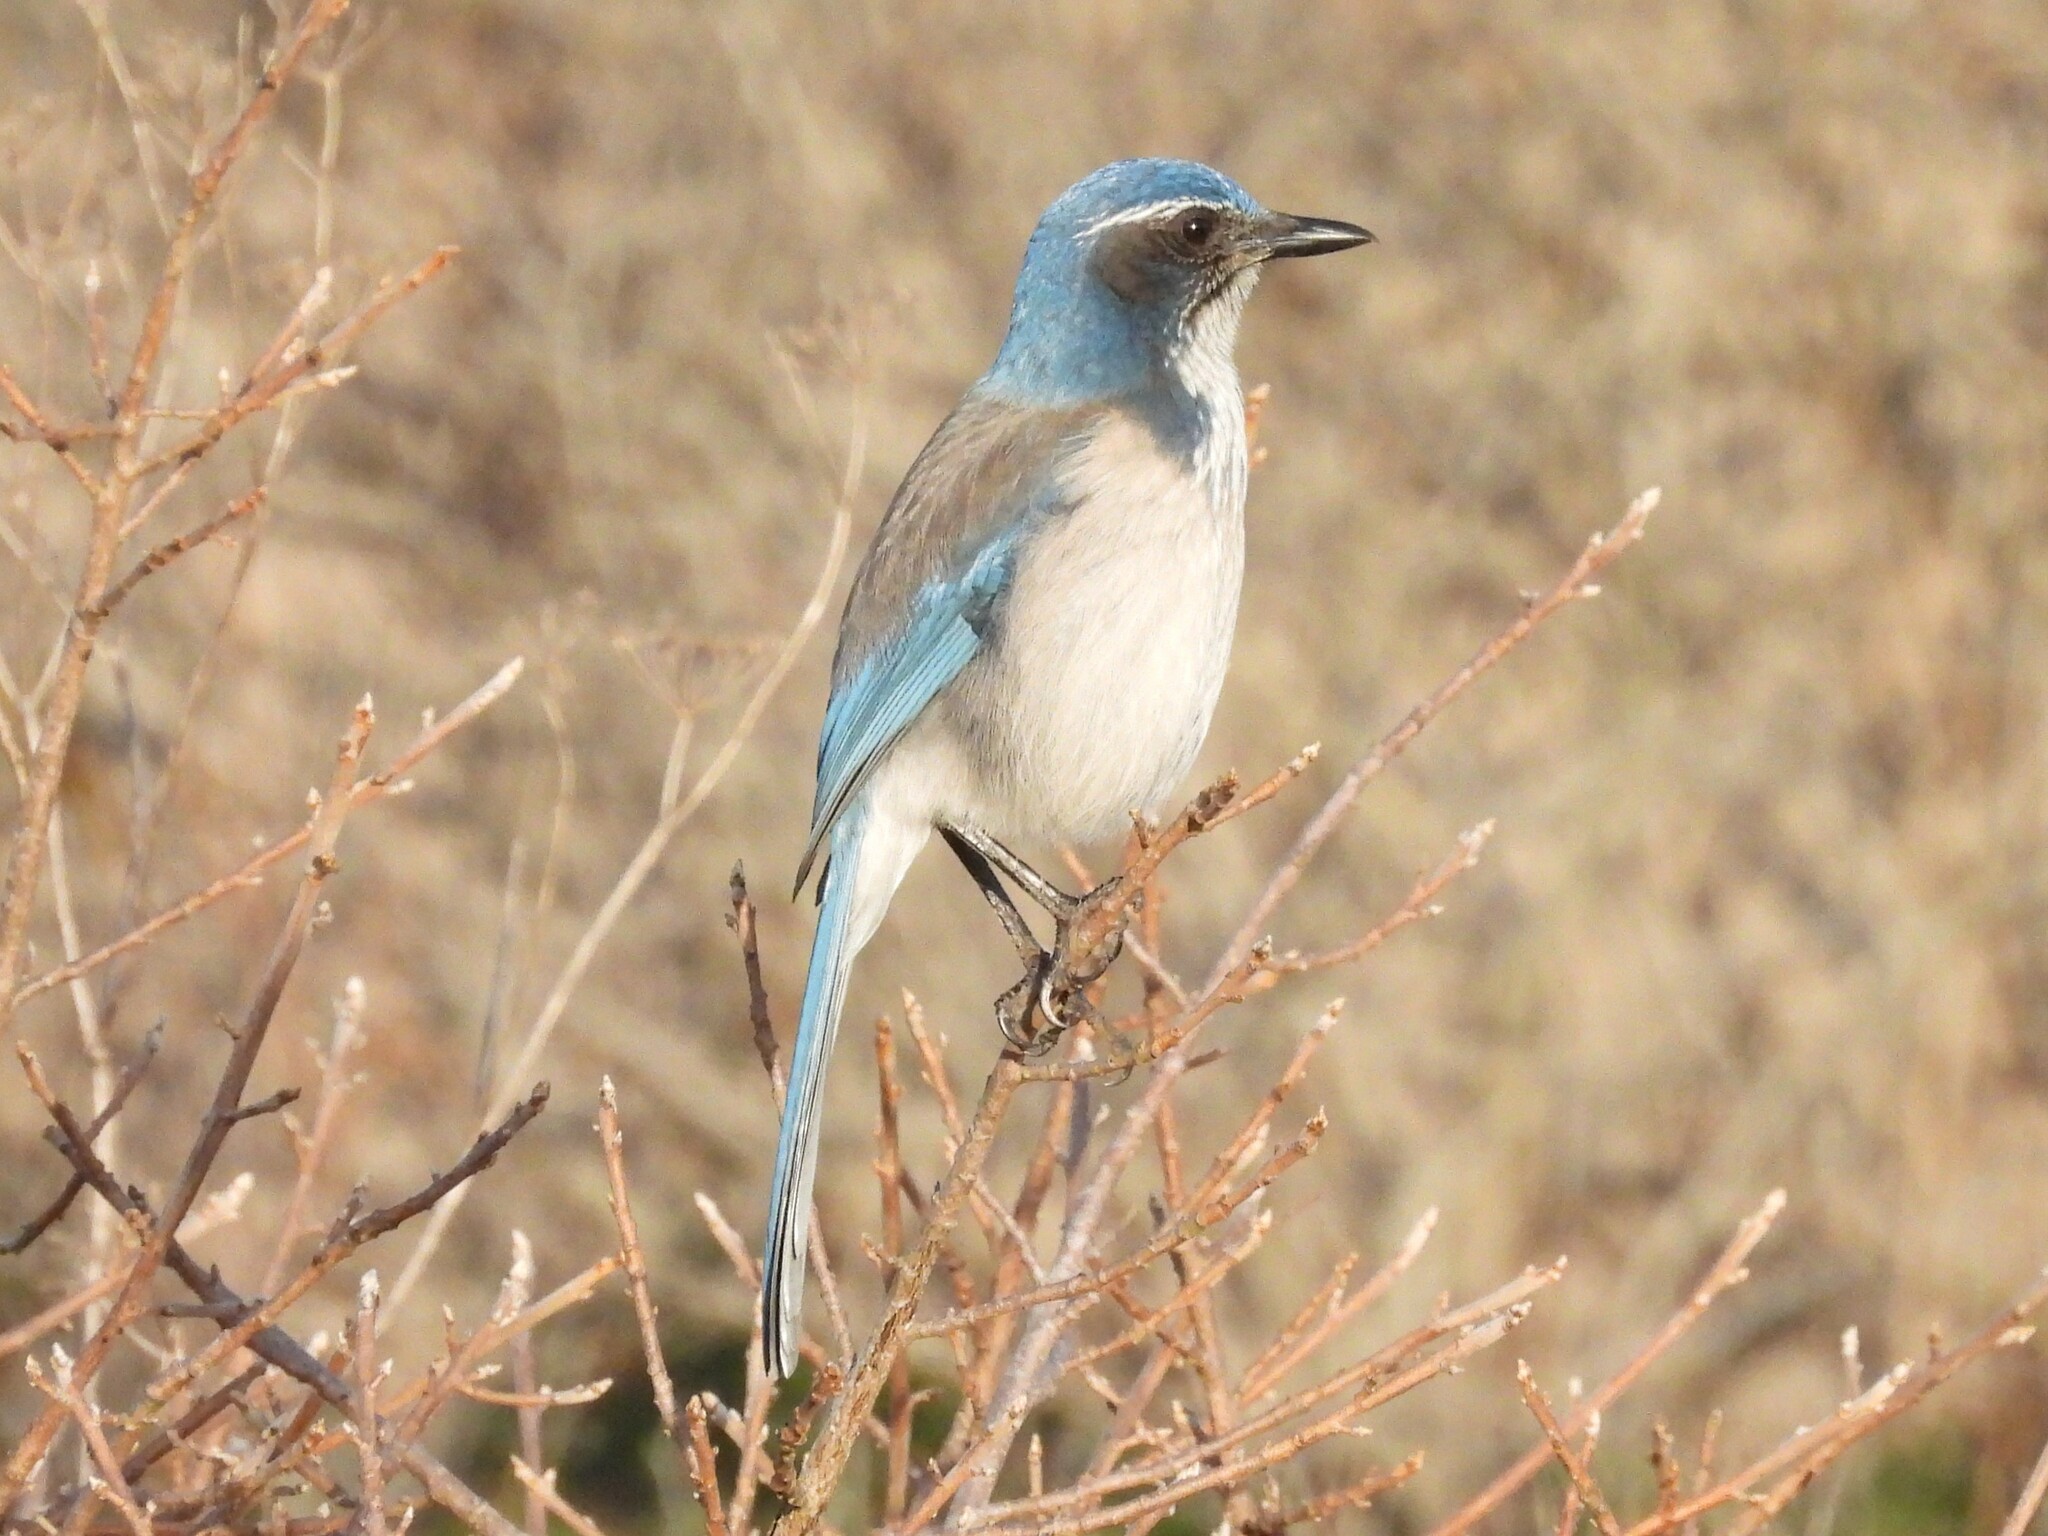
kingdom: Animalia
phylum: Chordata
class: Aves
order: Passeriformes
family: Corvidae
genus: Aphelocoma
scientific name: Aphelocoma californica
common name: California scrub-jay
